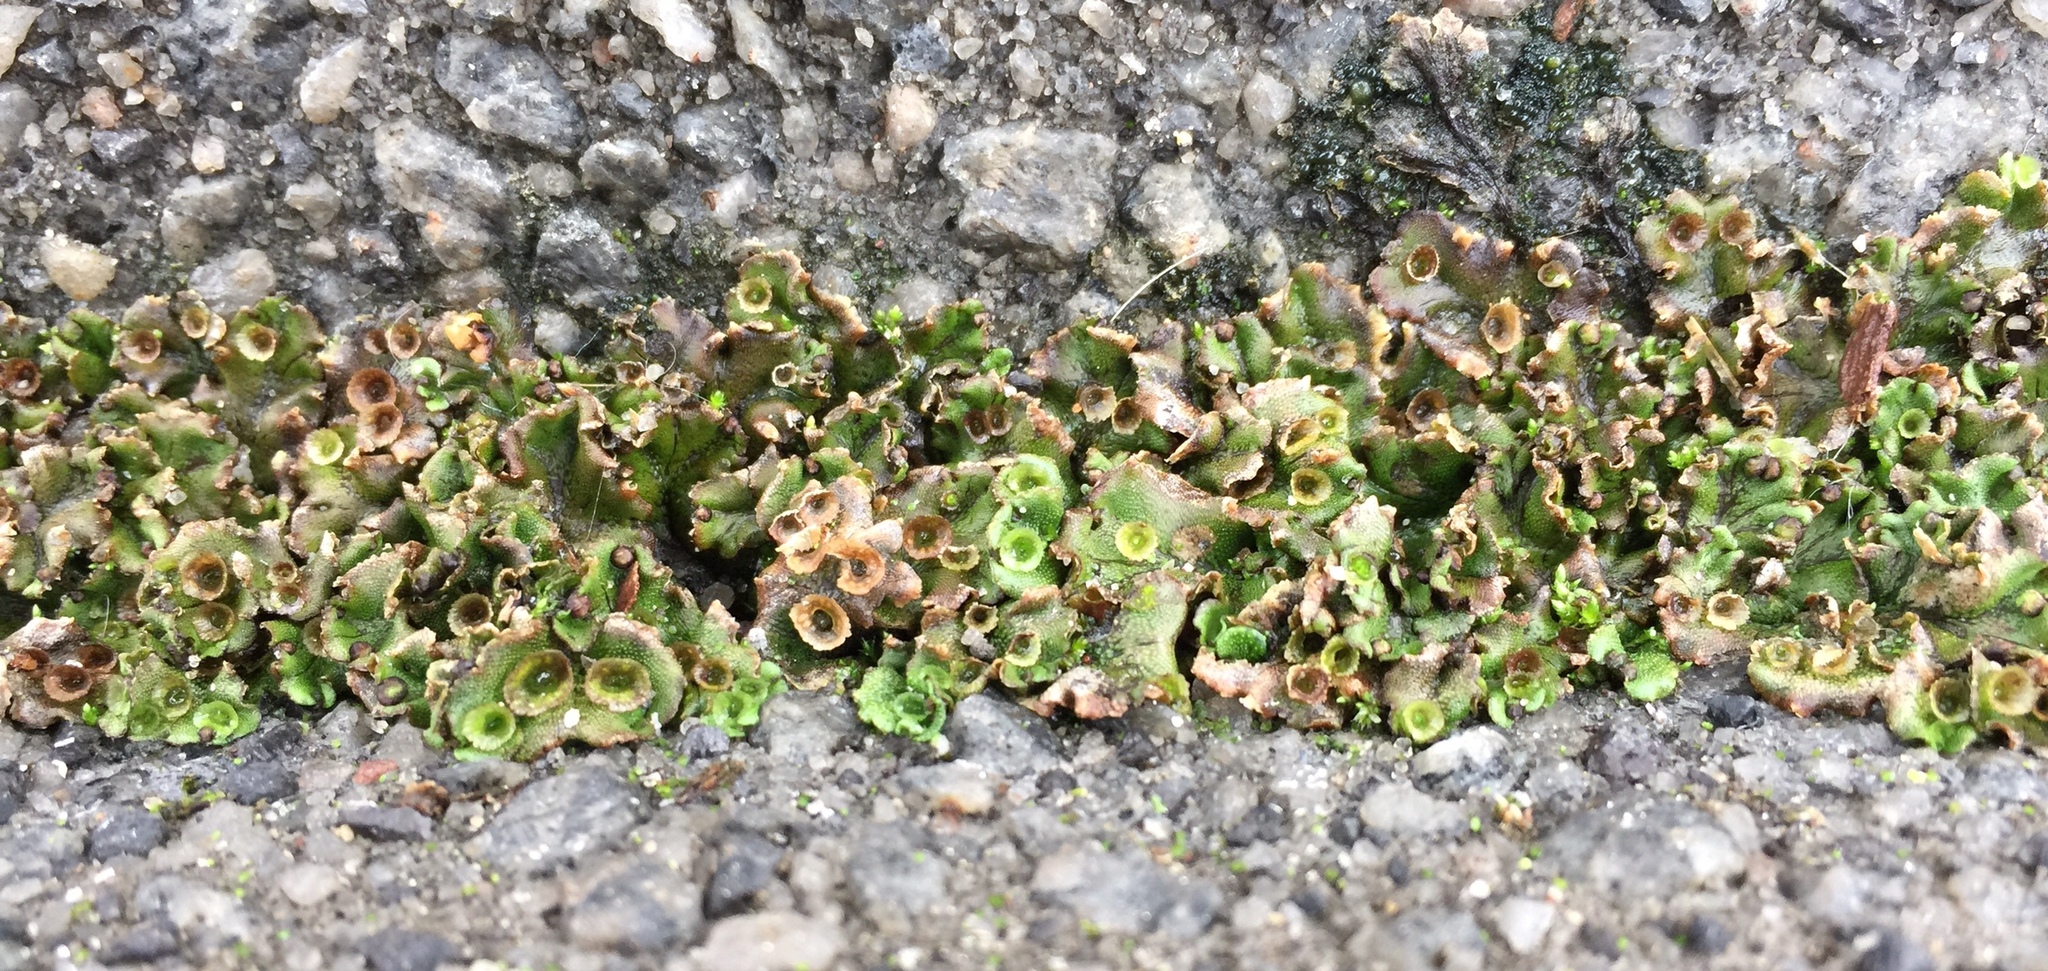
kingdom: Plantae
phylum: Marchantiophyta
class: Marchantiopsida
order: Marchantiales
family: Marchantiaceae
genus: Marchantia
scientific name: Marchantia polymorpha
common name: Common liverwort
